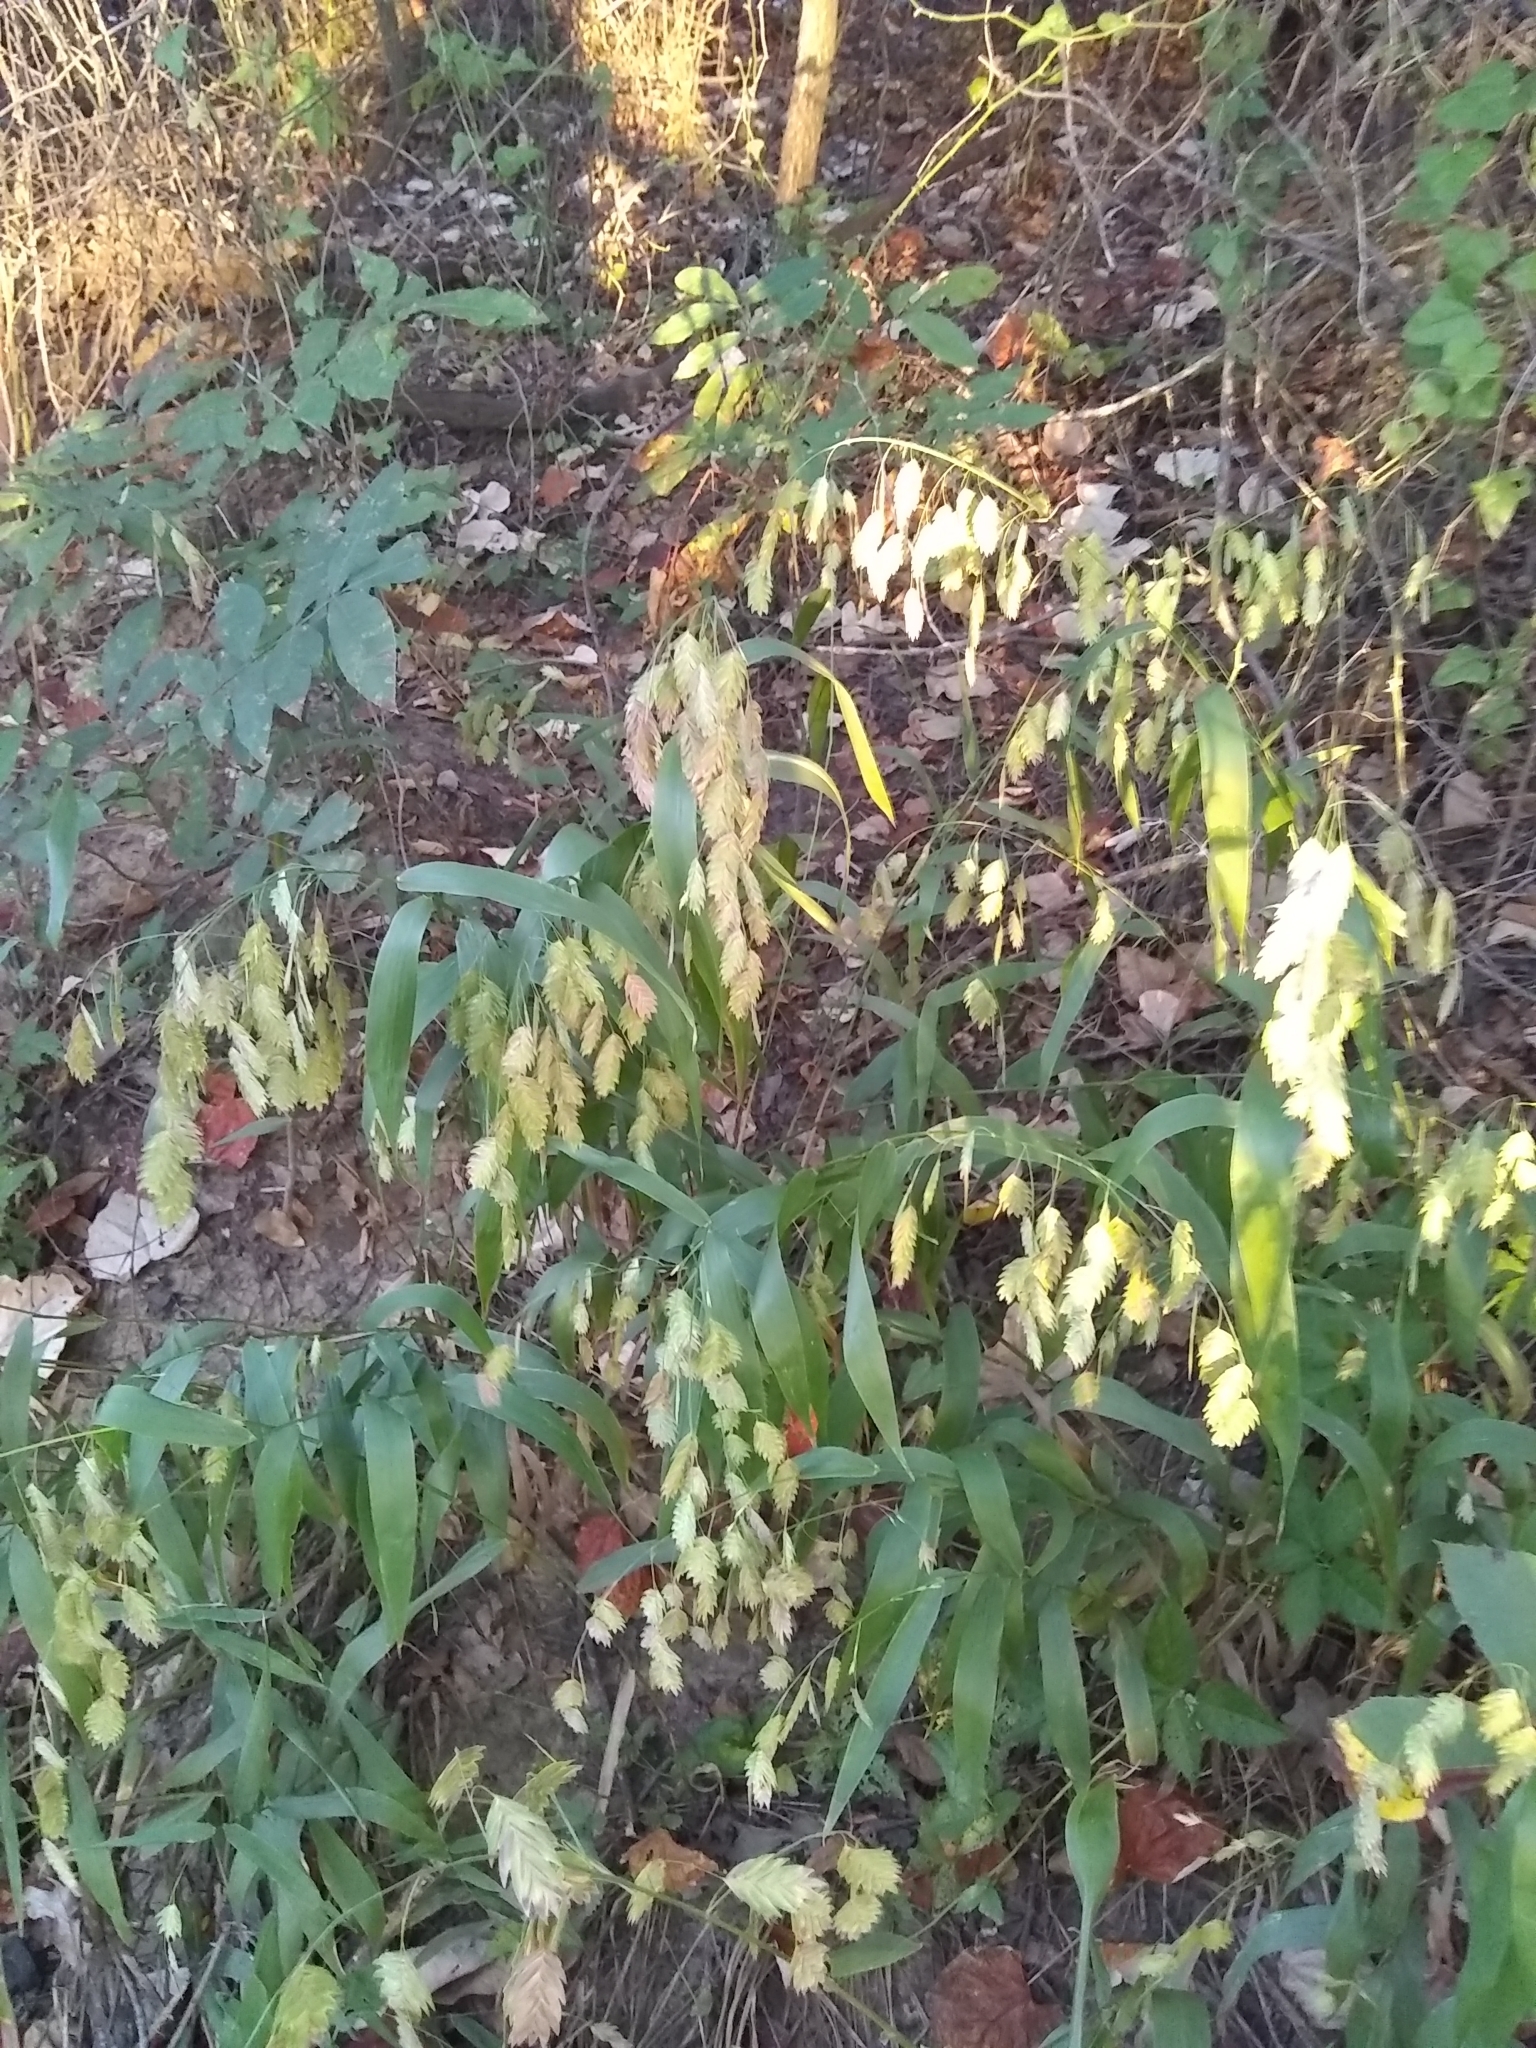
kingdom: Plantae
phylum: Tracheophyta
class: Liliopsida
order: Poales
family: Poaceae
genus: Chasmanthium
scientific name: Chasmanthium latifolium
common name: Broad-leaved chasmanthium
